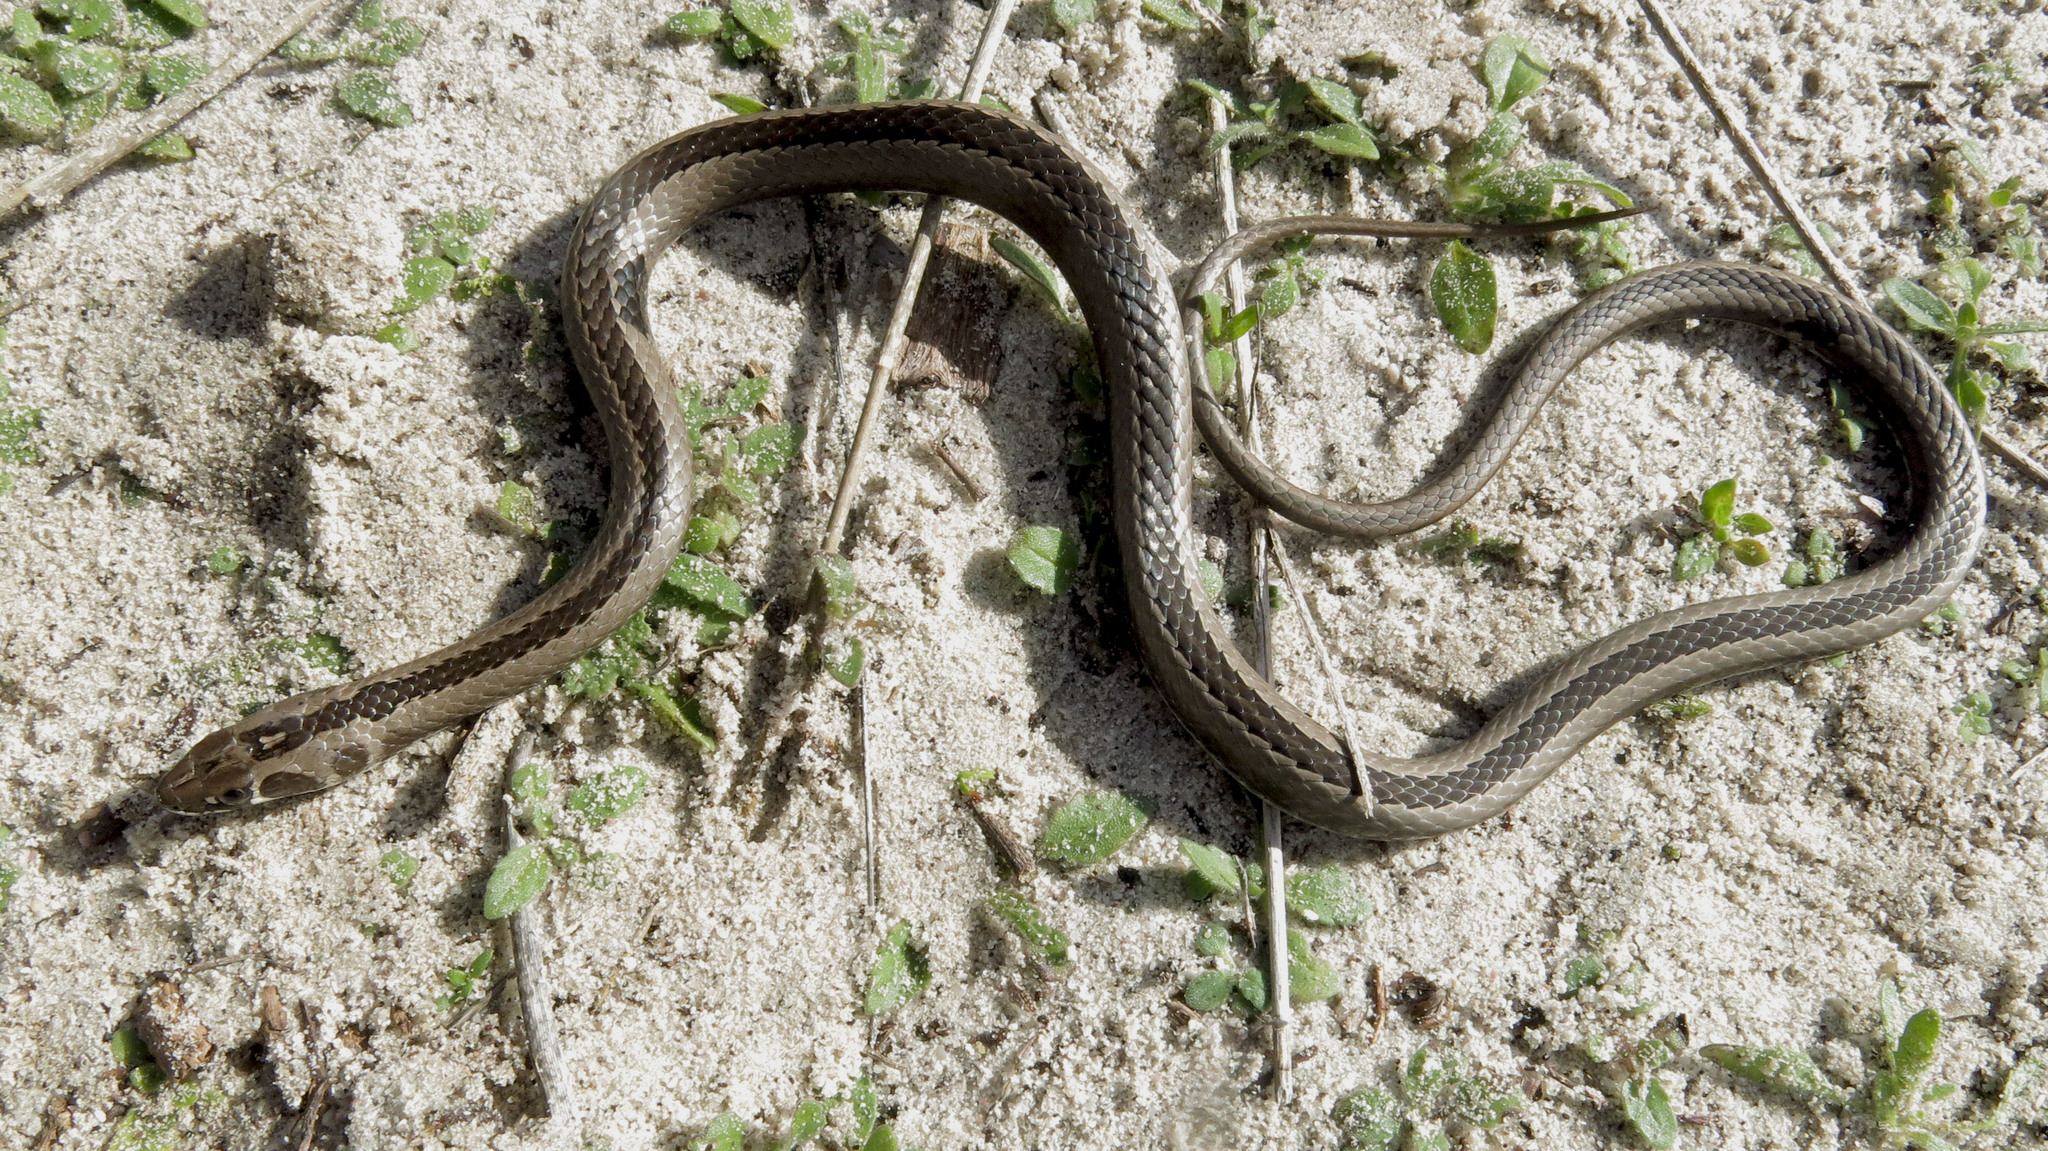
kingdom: Animalia
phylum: Chordata
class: Squamata
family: Psammophiidae
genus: Psammophis
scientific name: Psammophis crucifer
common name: Cross-marked grass snake
